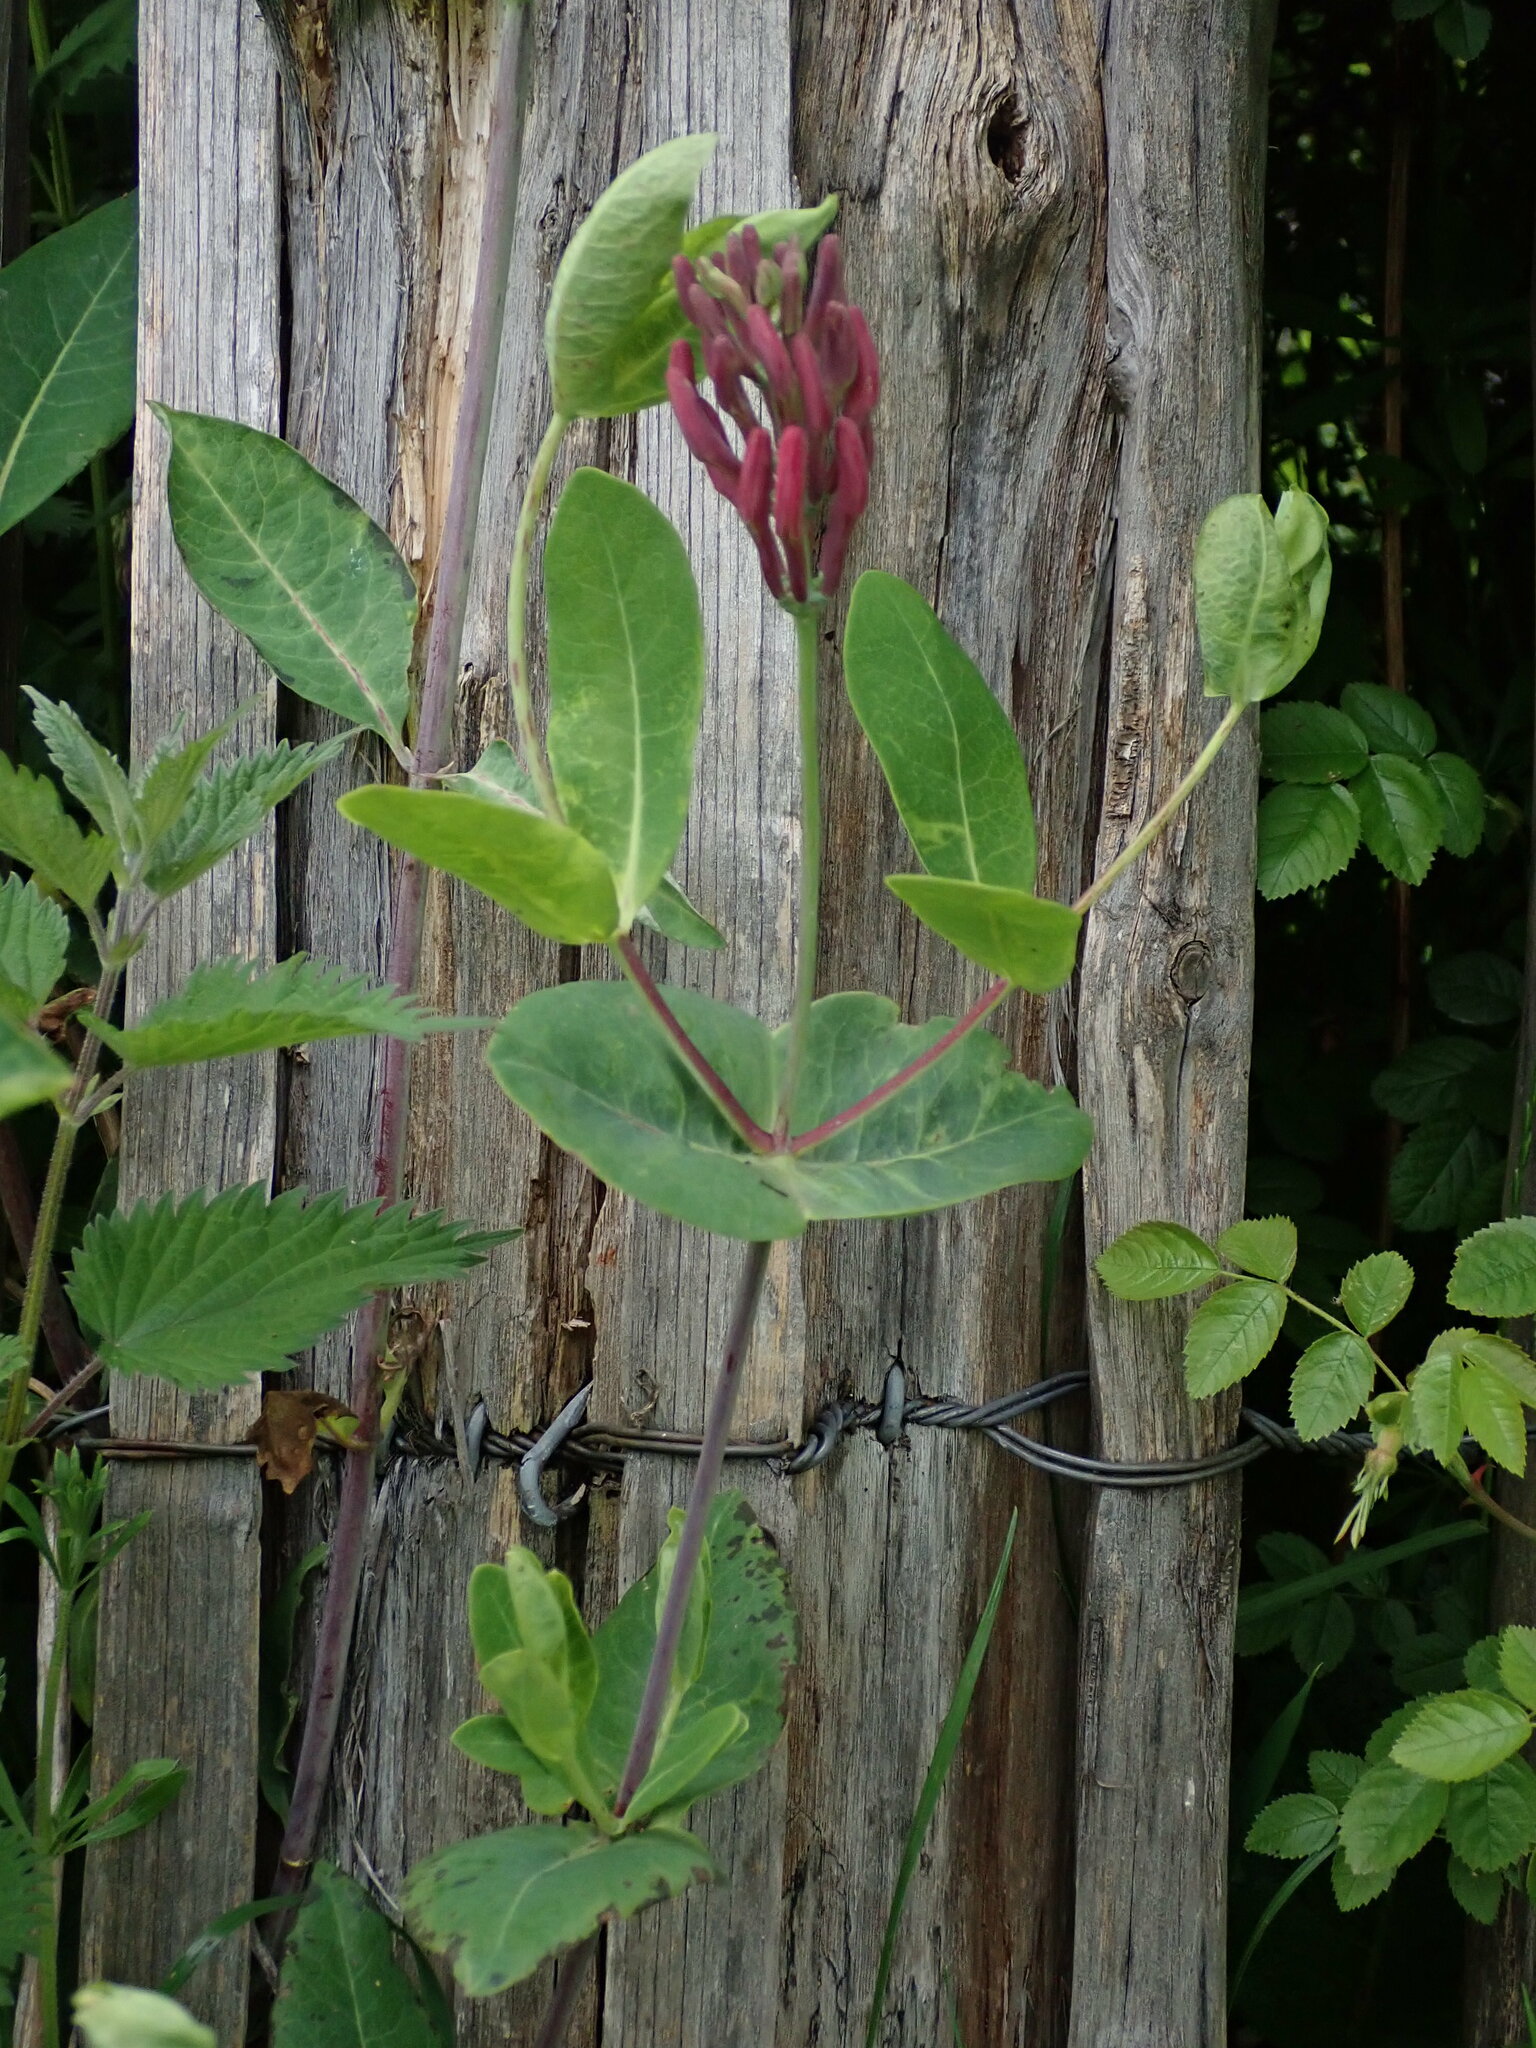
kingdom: Plantae
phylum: Tracheophyta
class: Magnoliopsida
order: Dipsacales
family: Caprifoliaceae
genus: Lonicera
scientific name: Lonicera caprifolium
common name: Perfoliate honeysuckle
